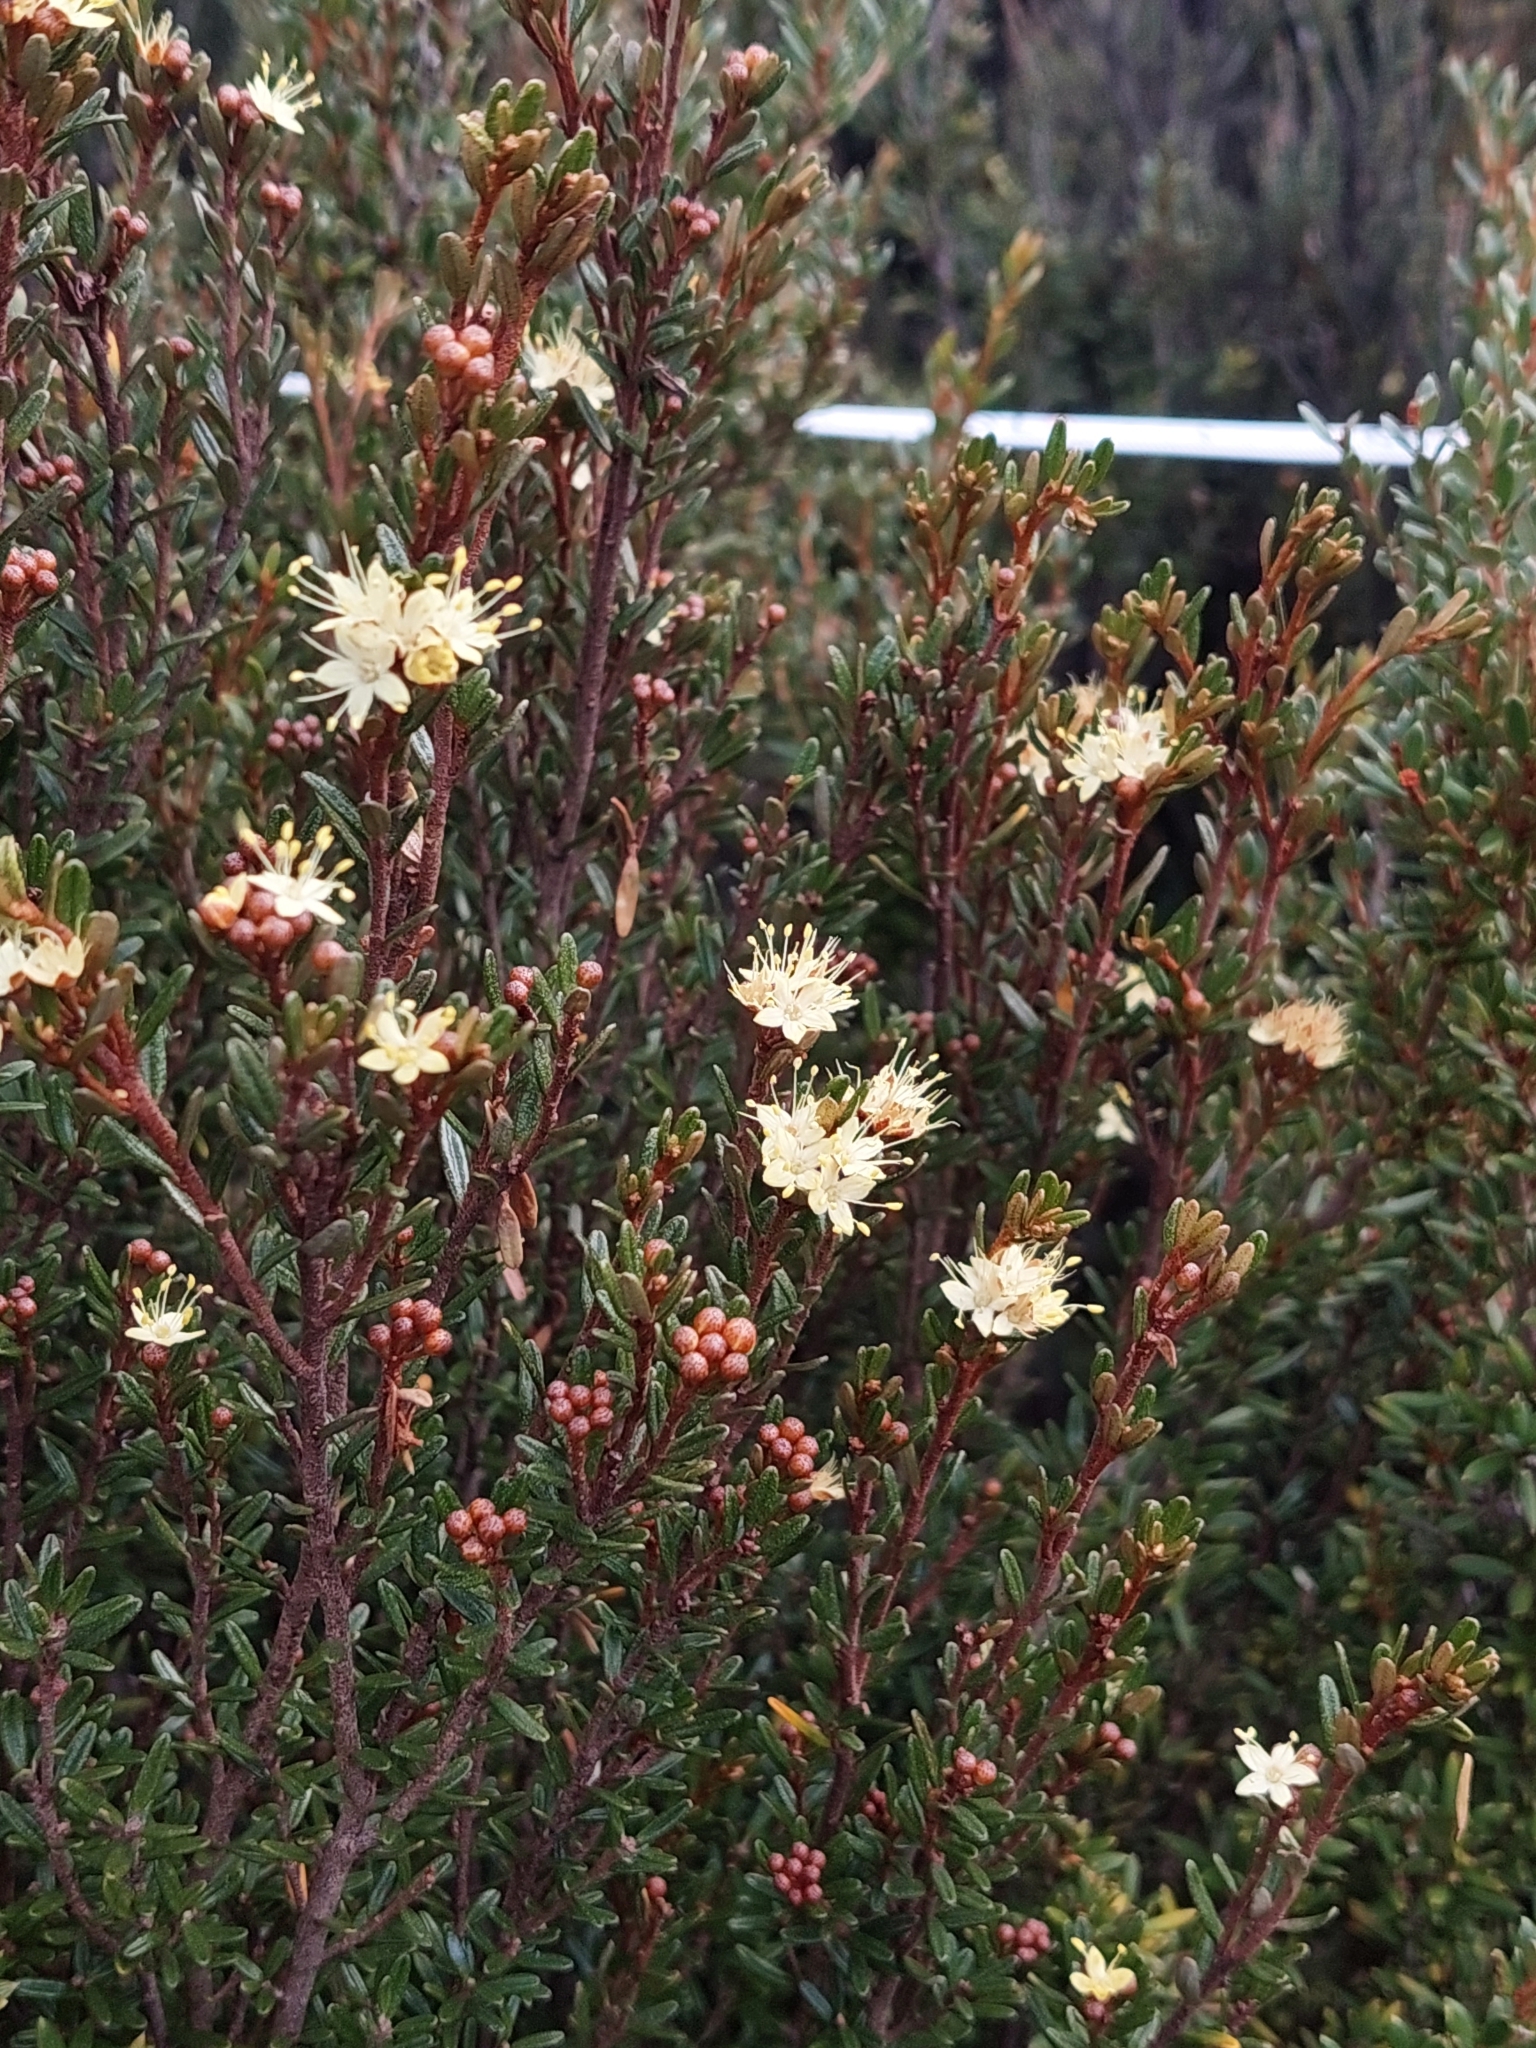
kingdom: Plantae
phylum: Tracheophyta
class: Magnoliopsida
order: Sapindales
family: Rutaceae
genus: Phebalium
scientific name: Phebalium squamulosum
